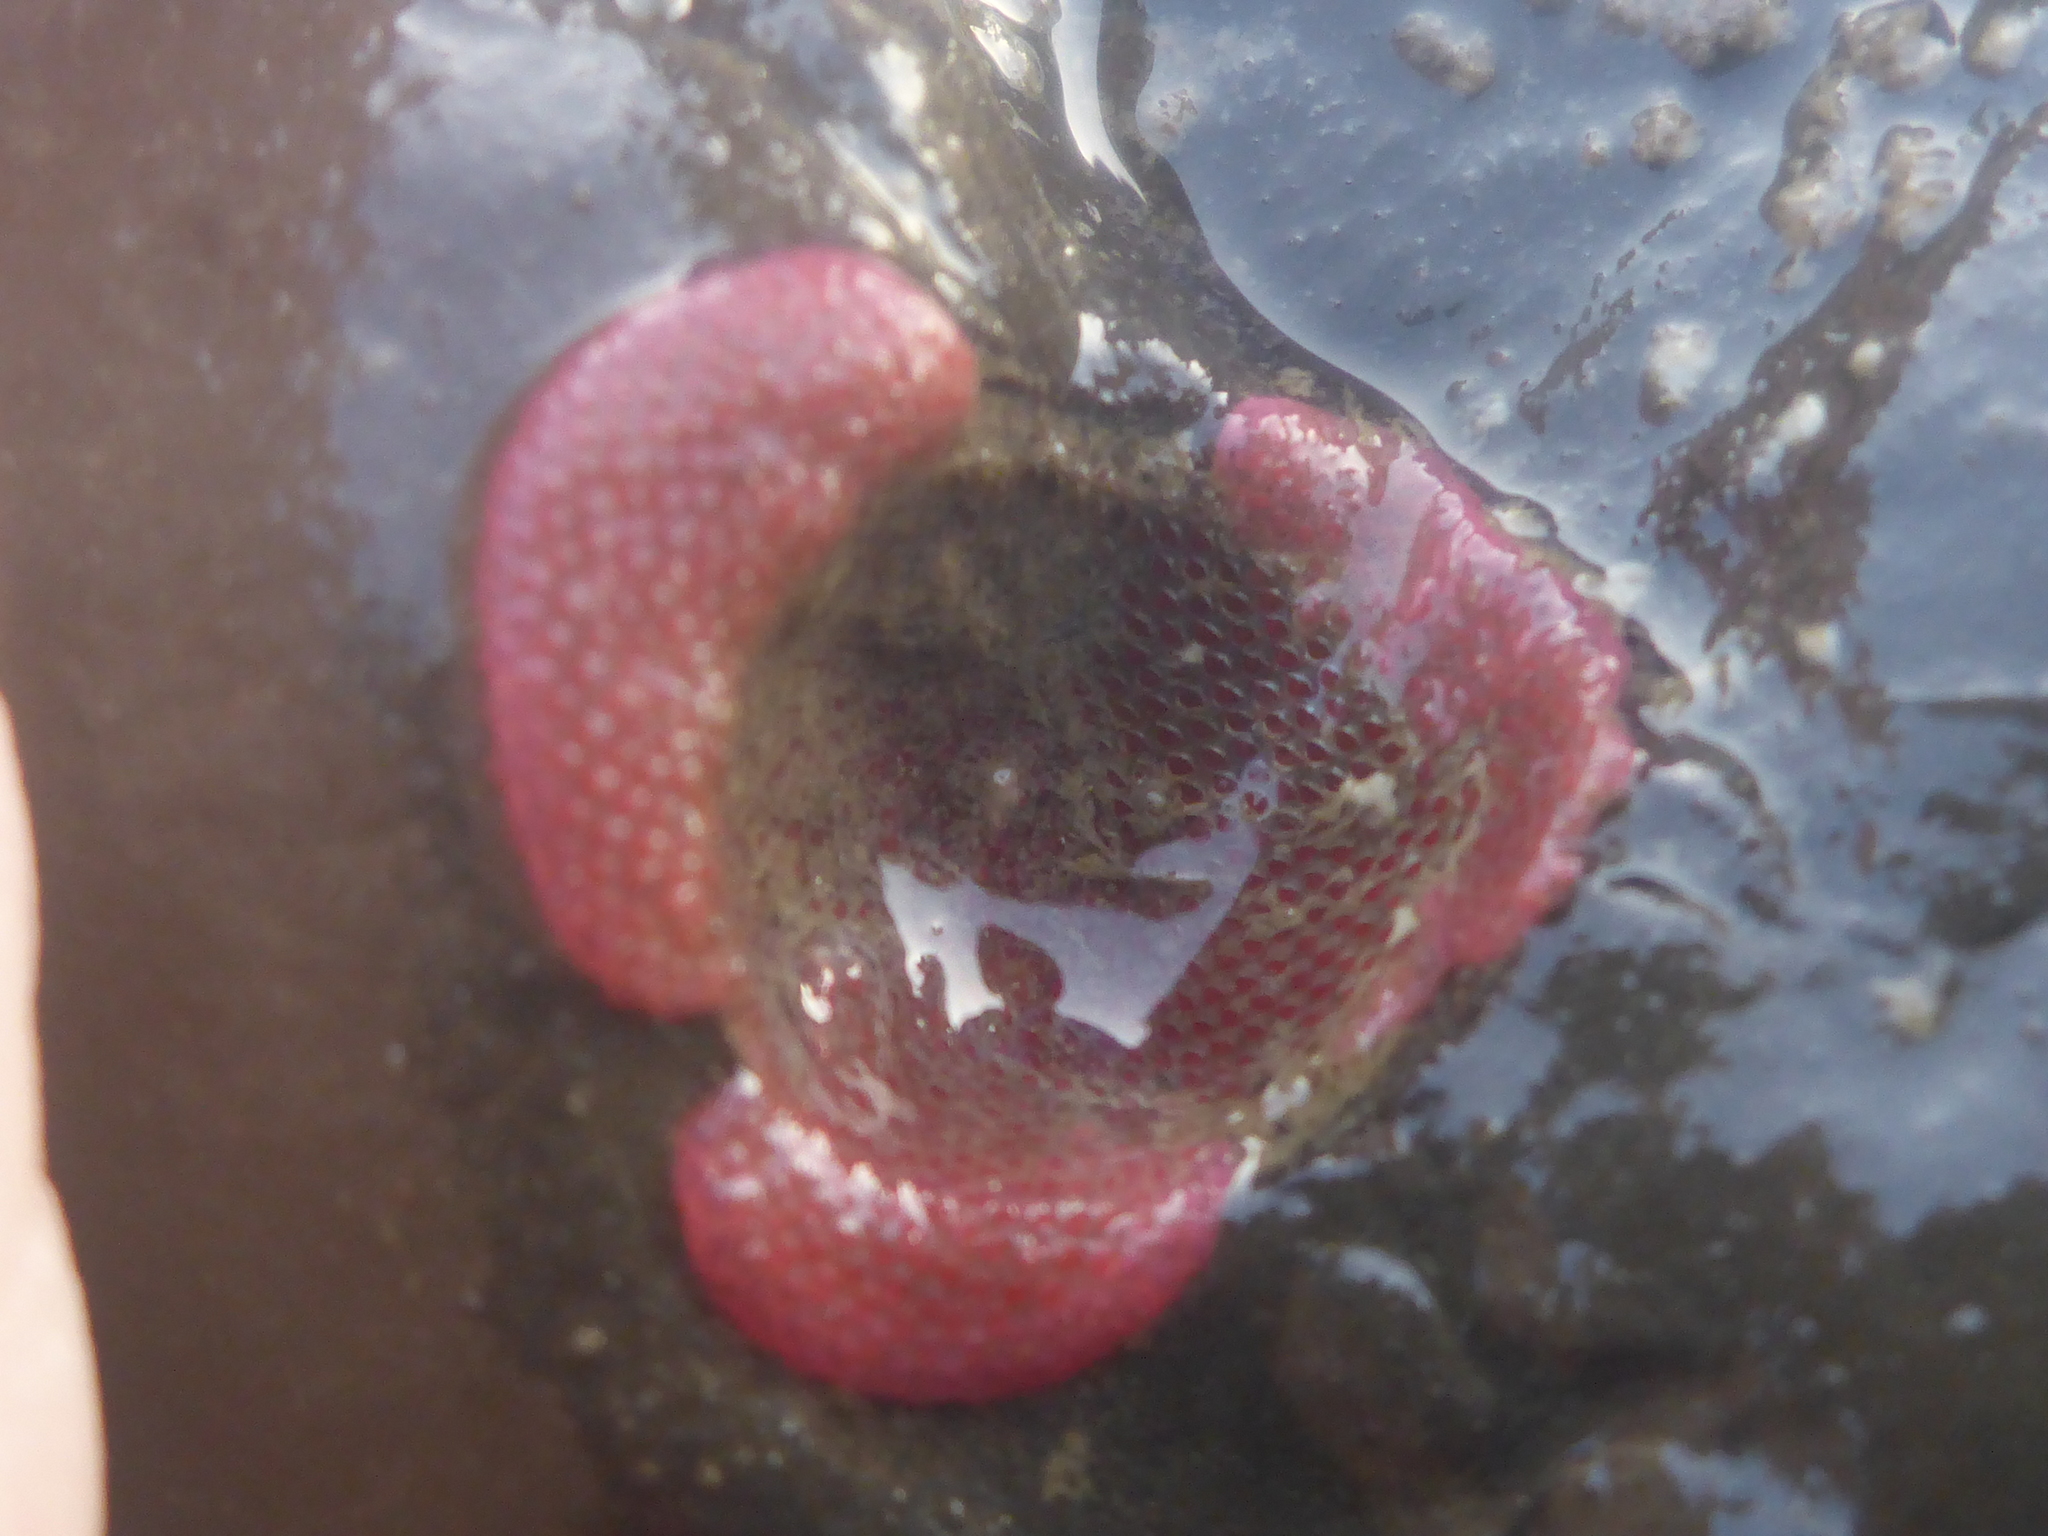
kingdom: Animalia
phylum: Bryozoa
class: Gymnolaemata
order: Cheilostomatida
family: Eurystomellidae
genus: Integripelta
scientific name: Integripelta bilabiata
